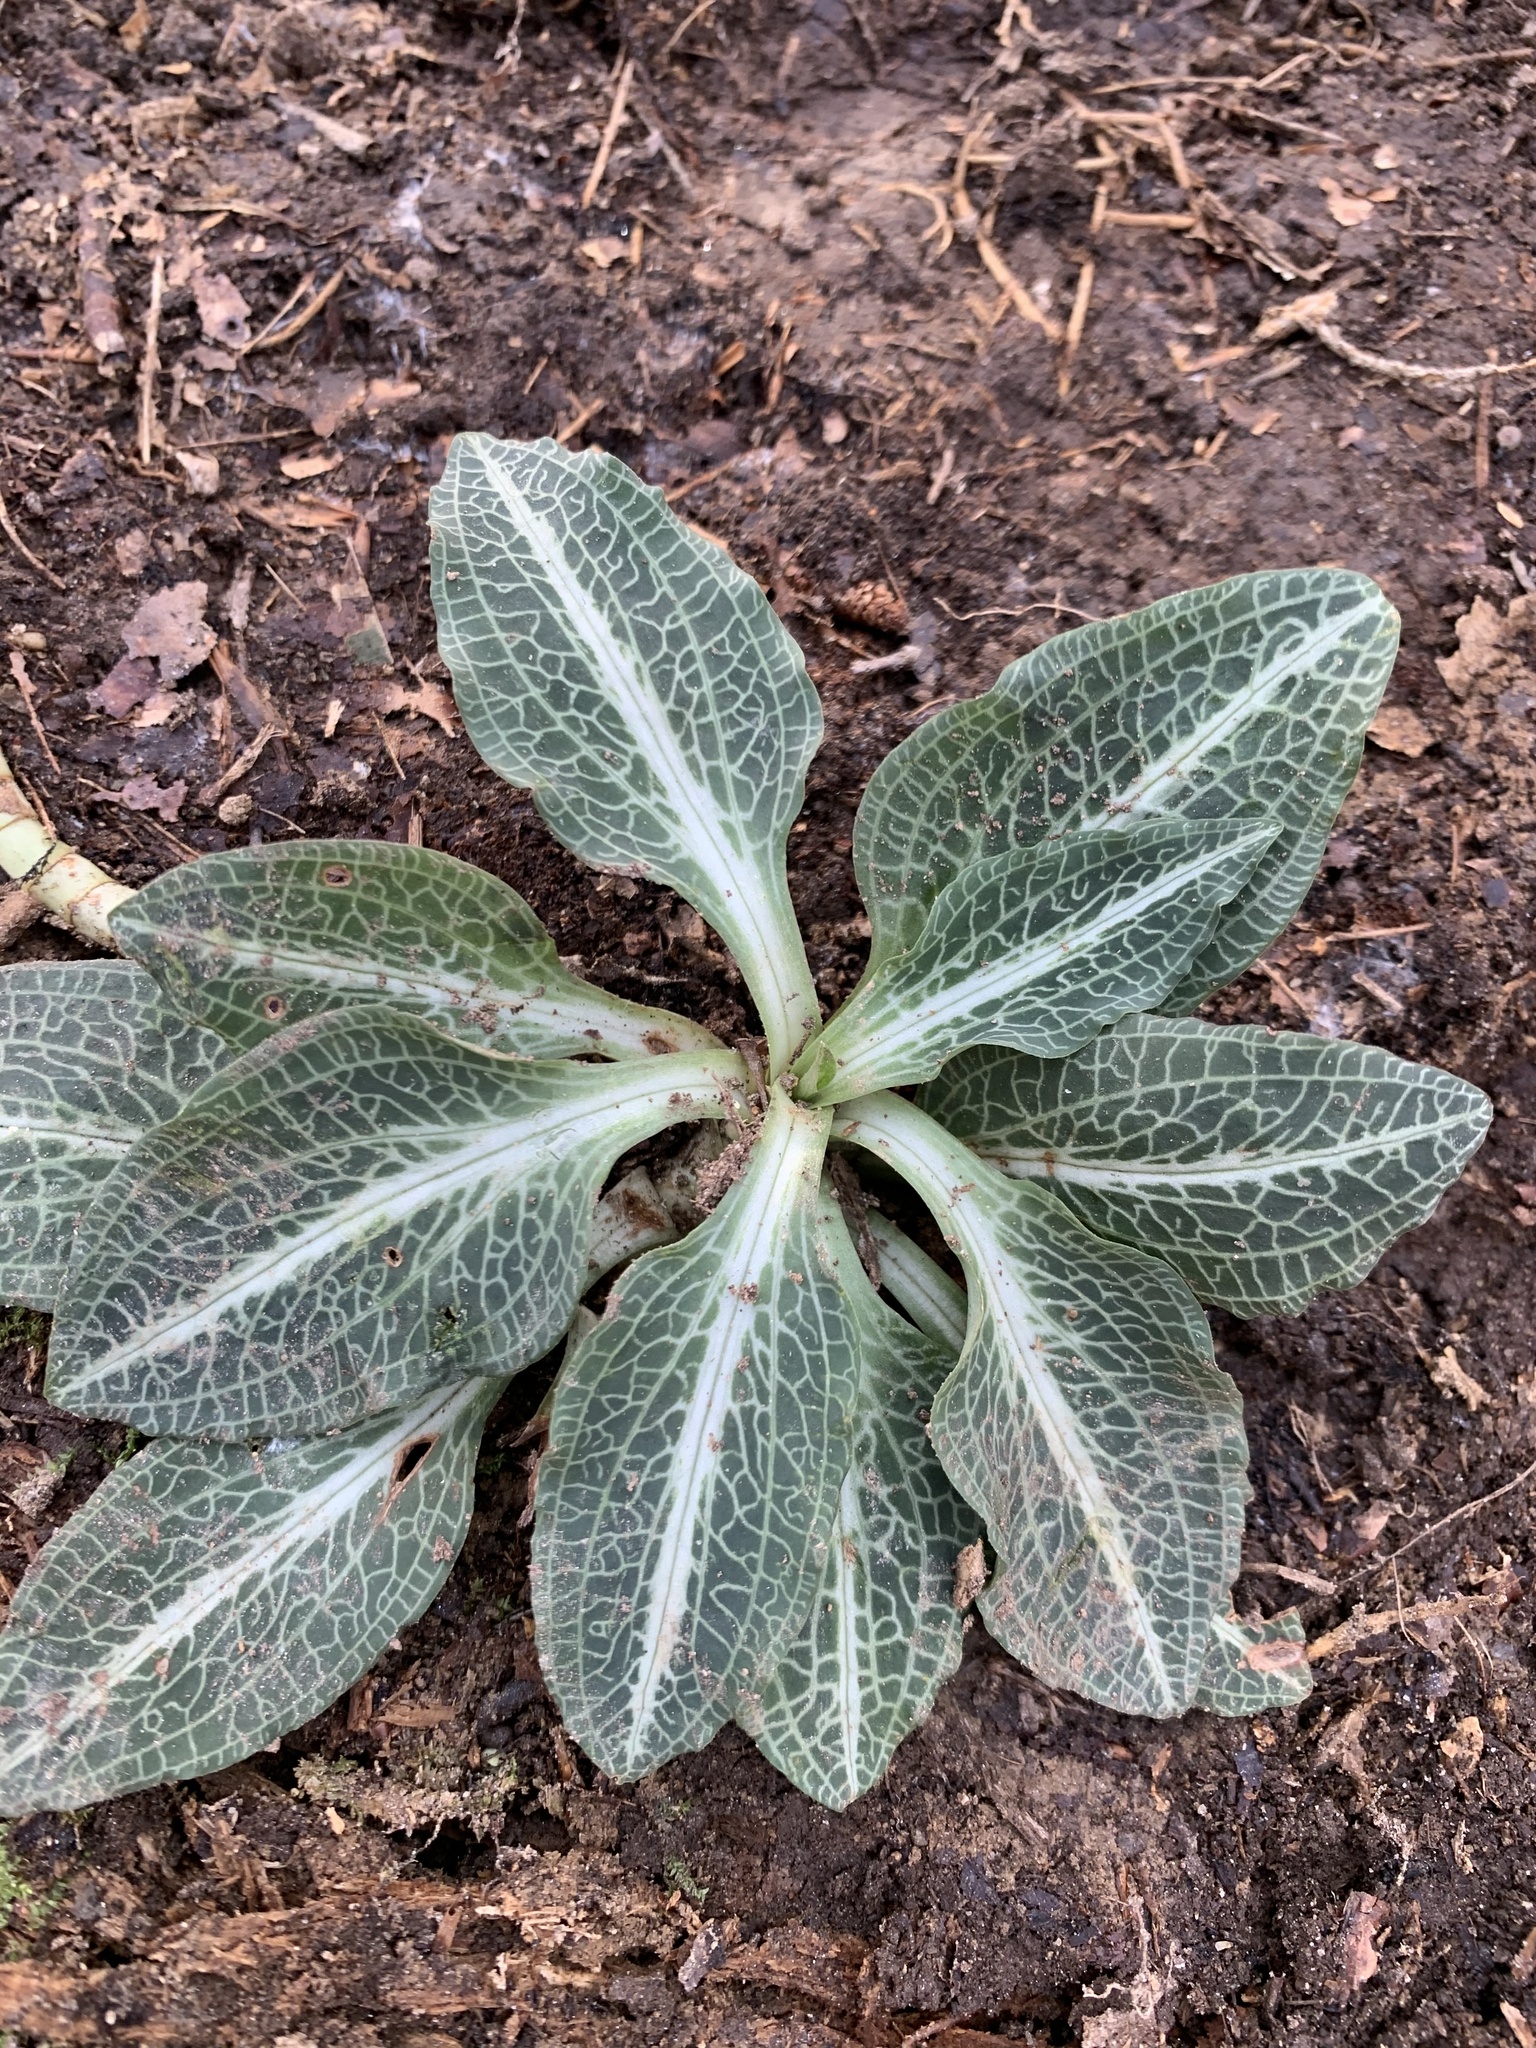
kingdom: Plantae
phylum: Tracheophyta
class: Liliopsida
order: Asparagales
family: Orchidaceae
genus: Goodyera
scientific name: Goodyera pubescens
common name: Downy rattlesnake-plantain
